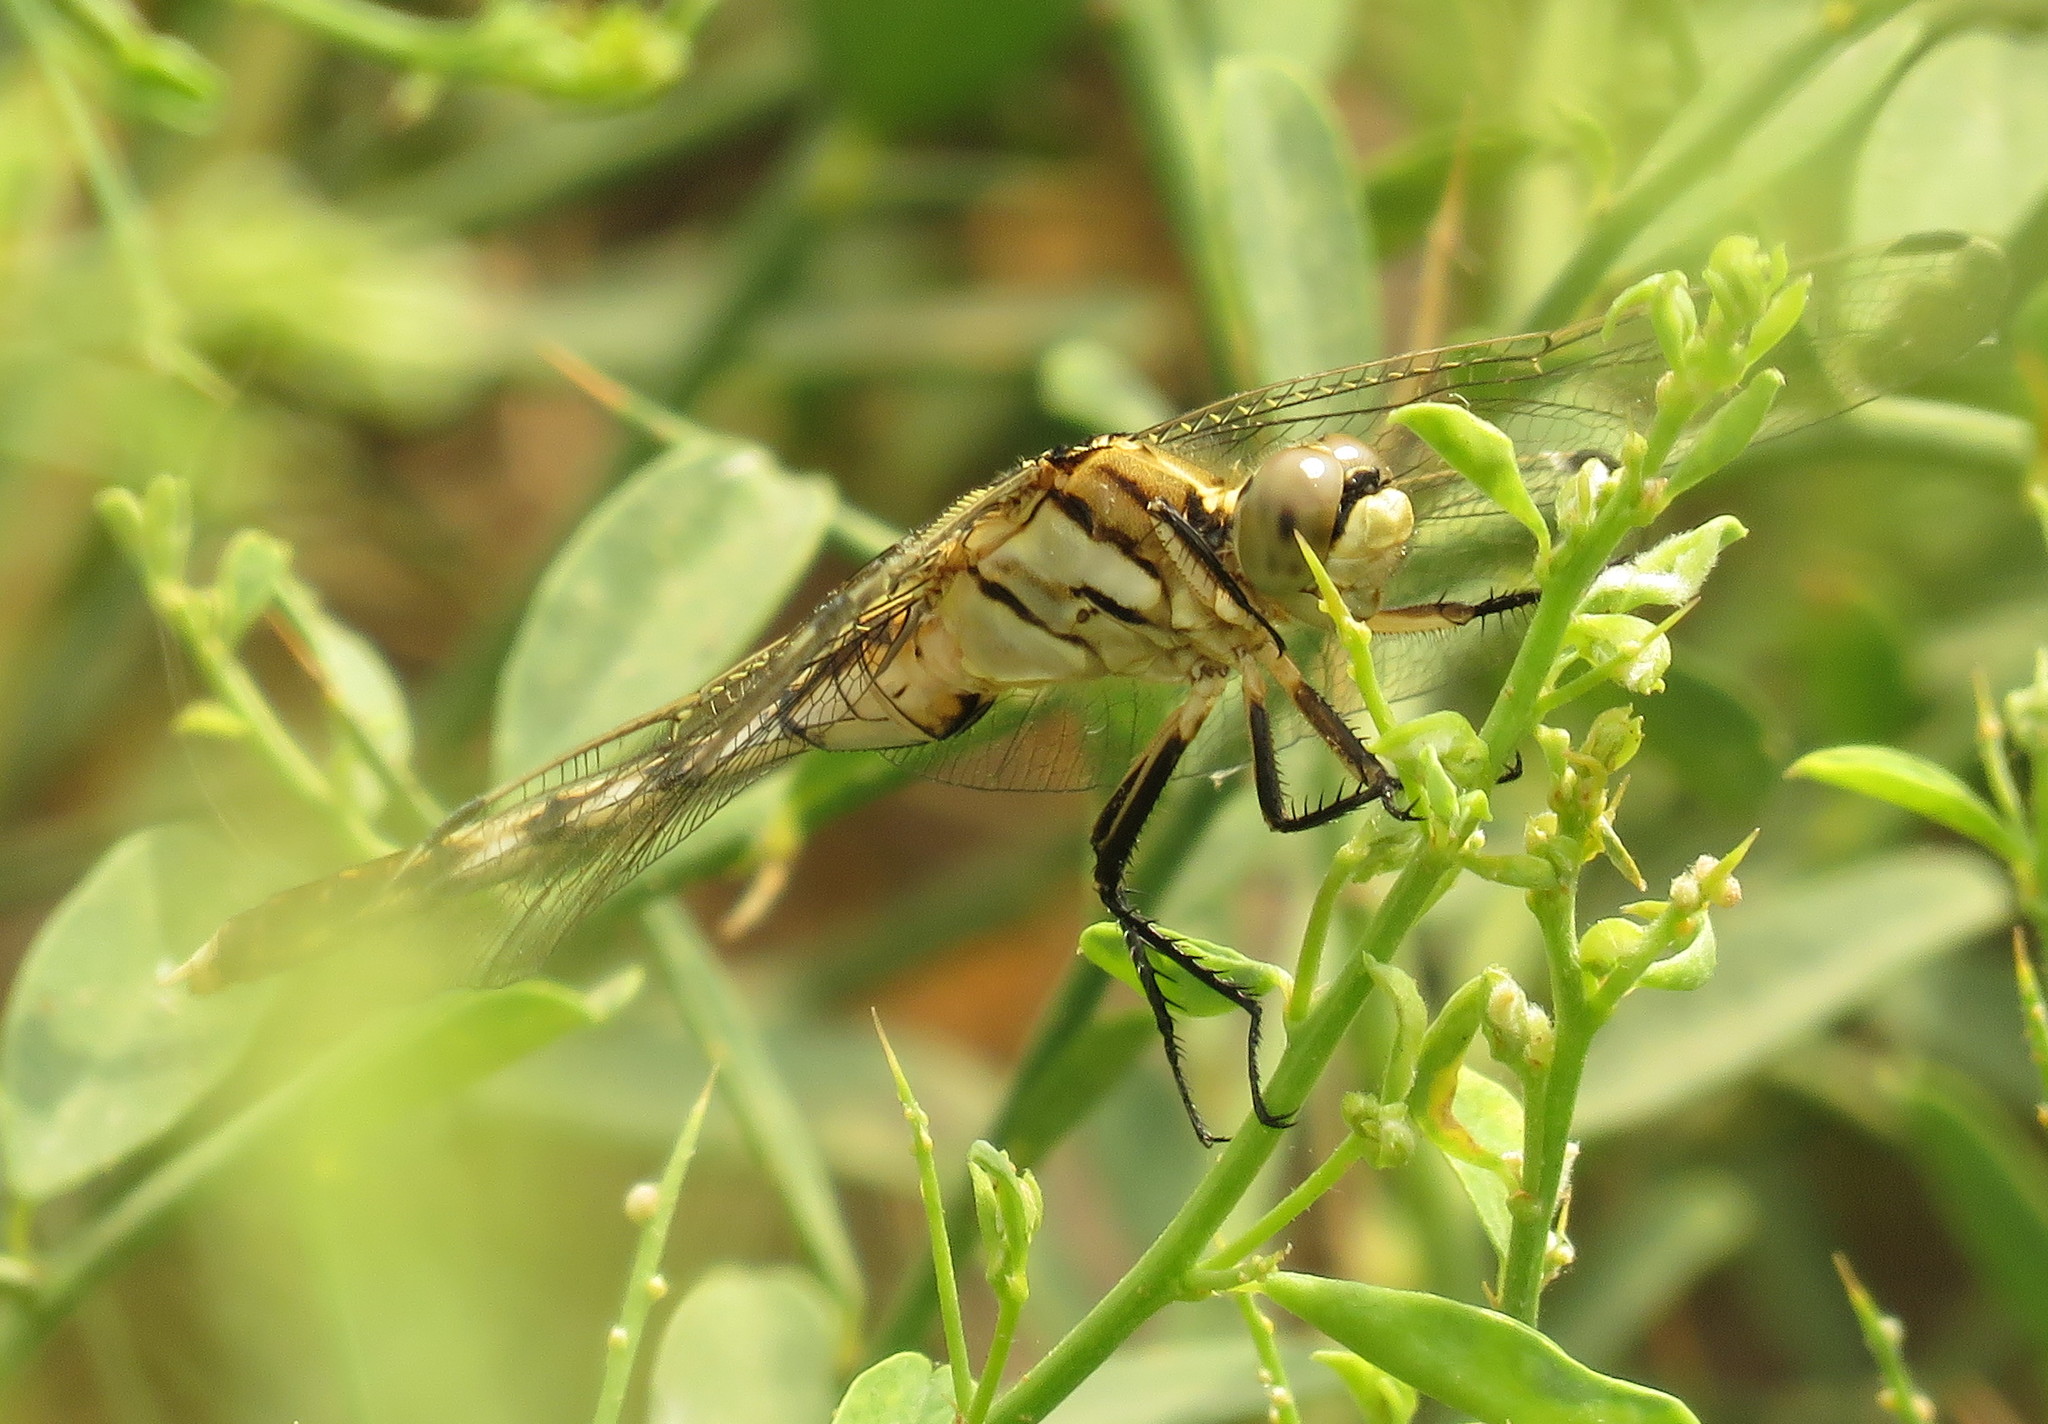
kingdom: Animalia
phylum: Arthropoda
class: Insecta
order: Odonata
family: Libellulidae
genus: Orthetrum
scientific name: Orthetrum albistylum
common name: White-tailed skimmer
